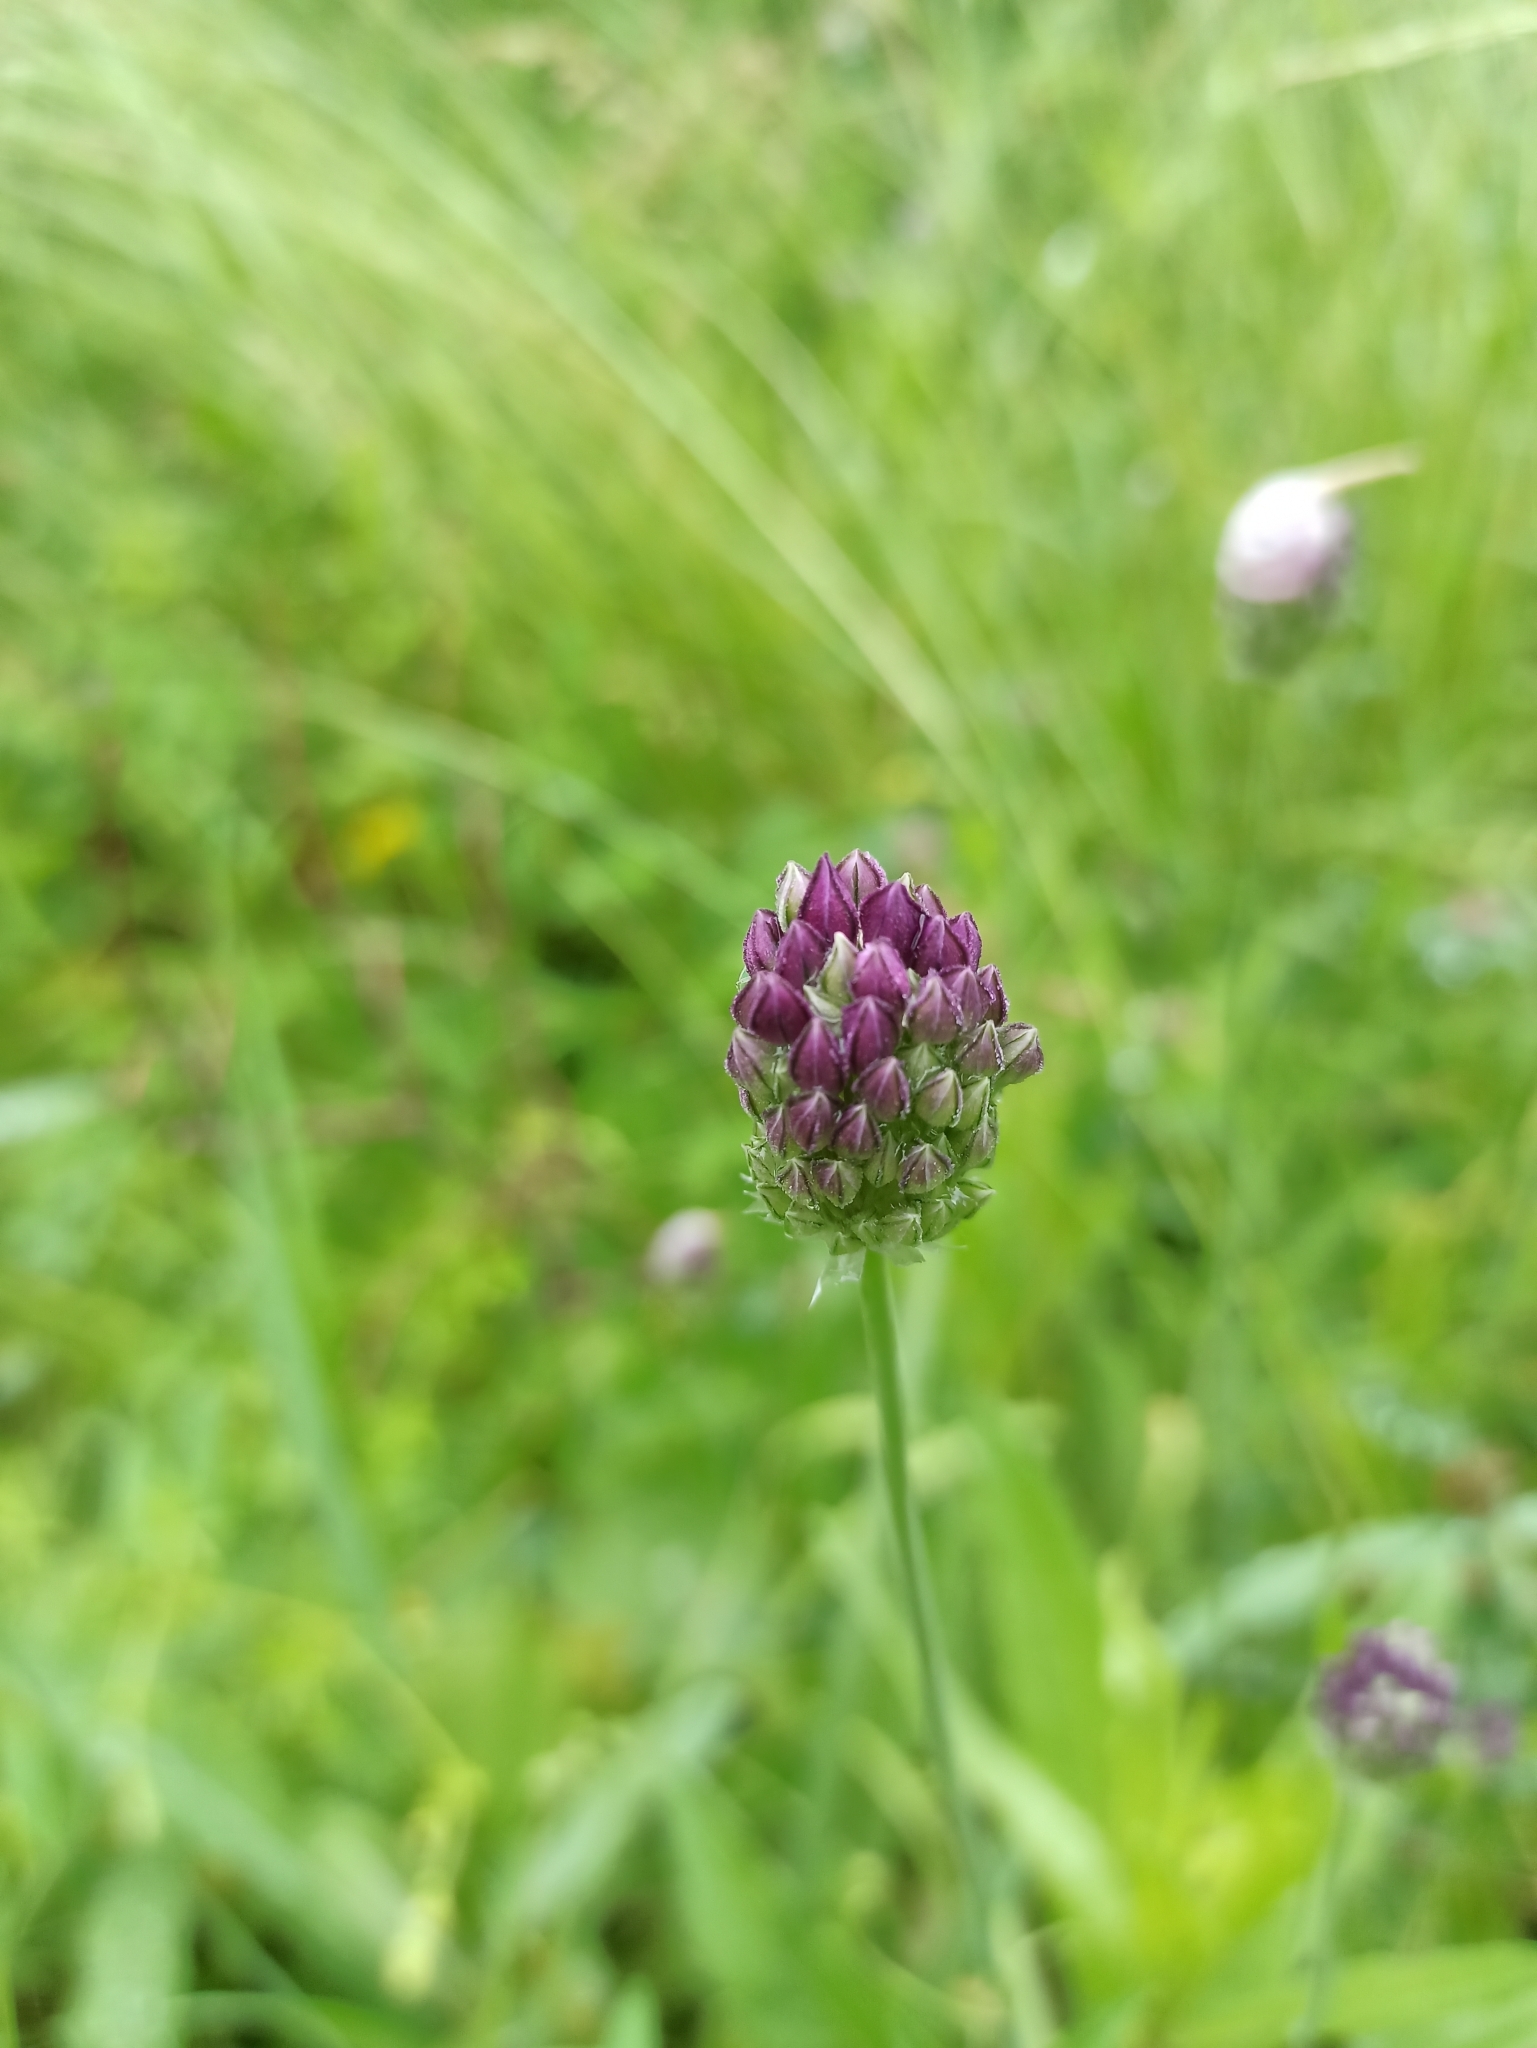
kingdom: Plantae
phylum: Tracheophyta
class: Liliopsida
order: Asparagales
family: Amaryllidaceae
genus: Allium
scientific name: Allium rotundum
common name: Sand leek
